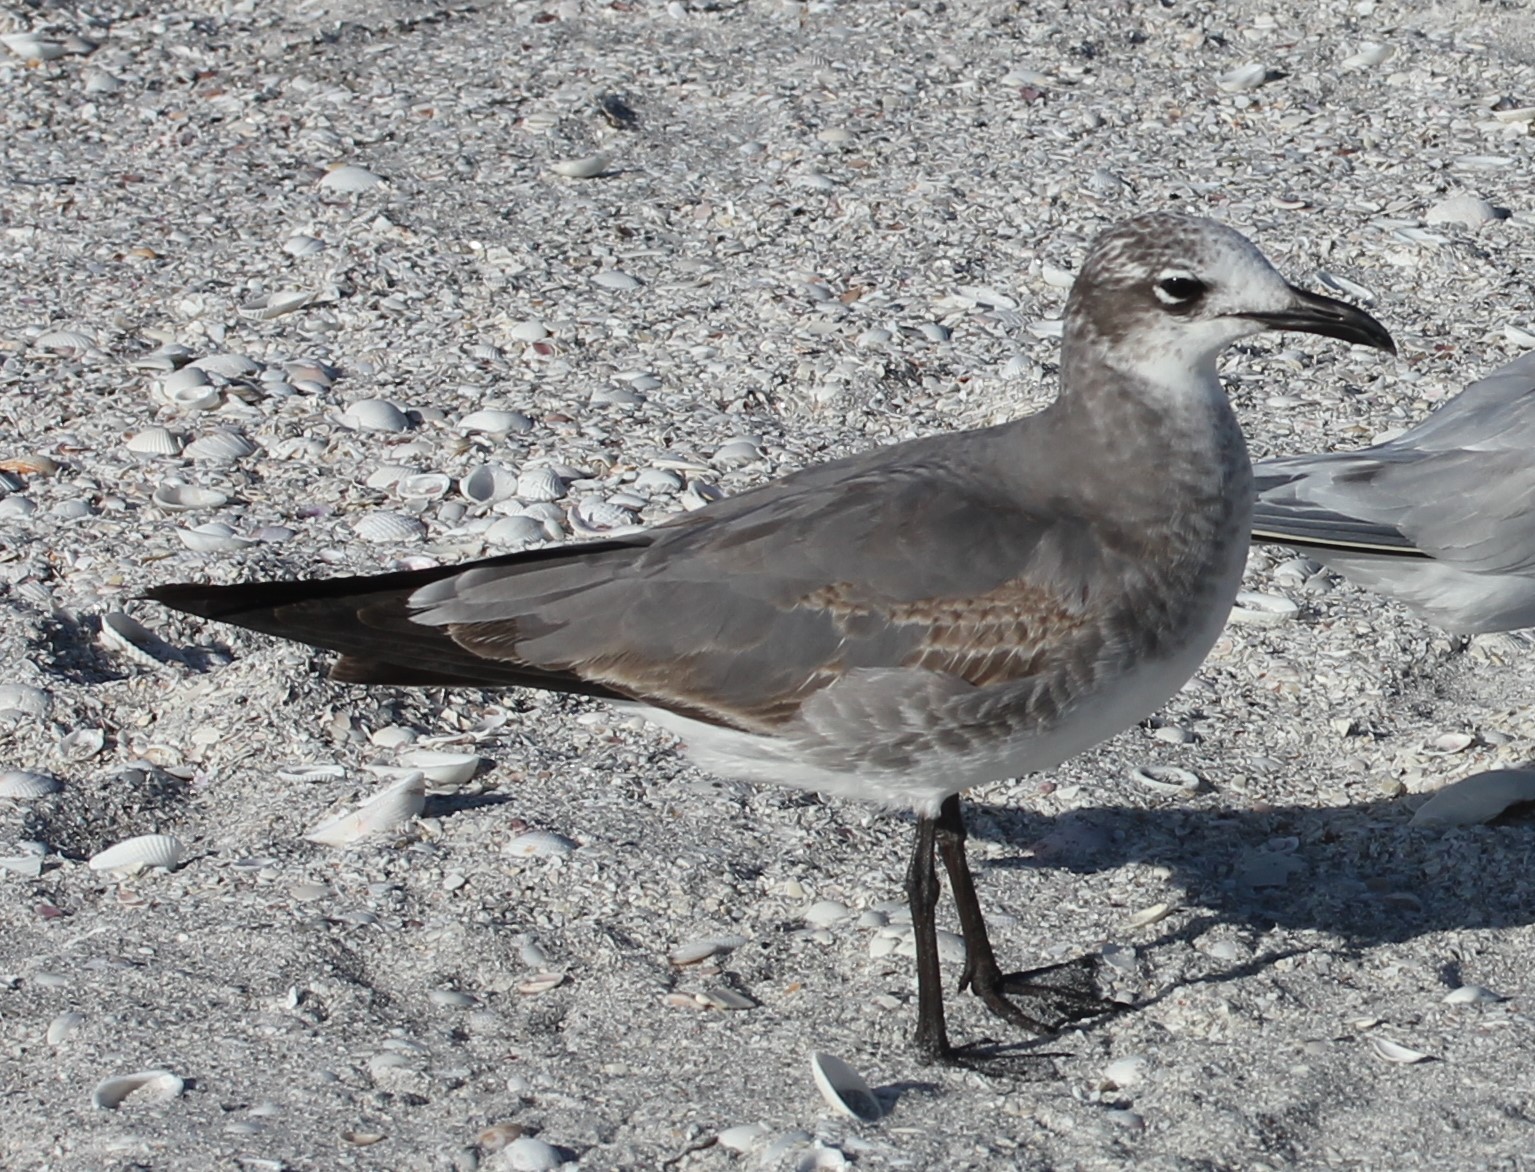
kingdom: Animalia
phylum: Chordata
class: Aves
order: Charadriiformes
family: Laridae
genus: Leucophaeus
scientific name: Leucophaeus atricilla
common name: Laughing gull
